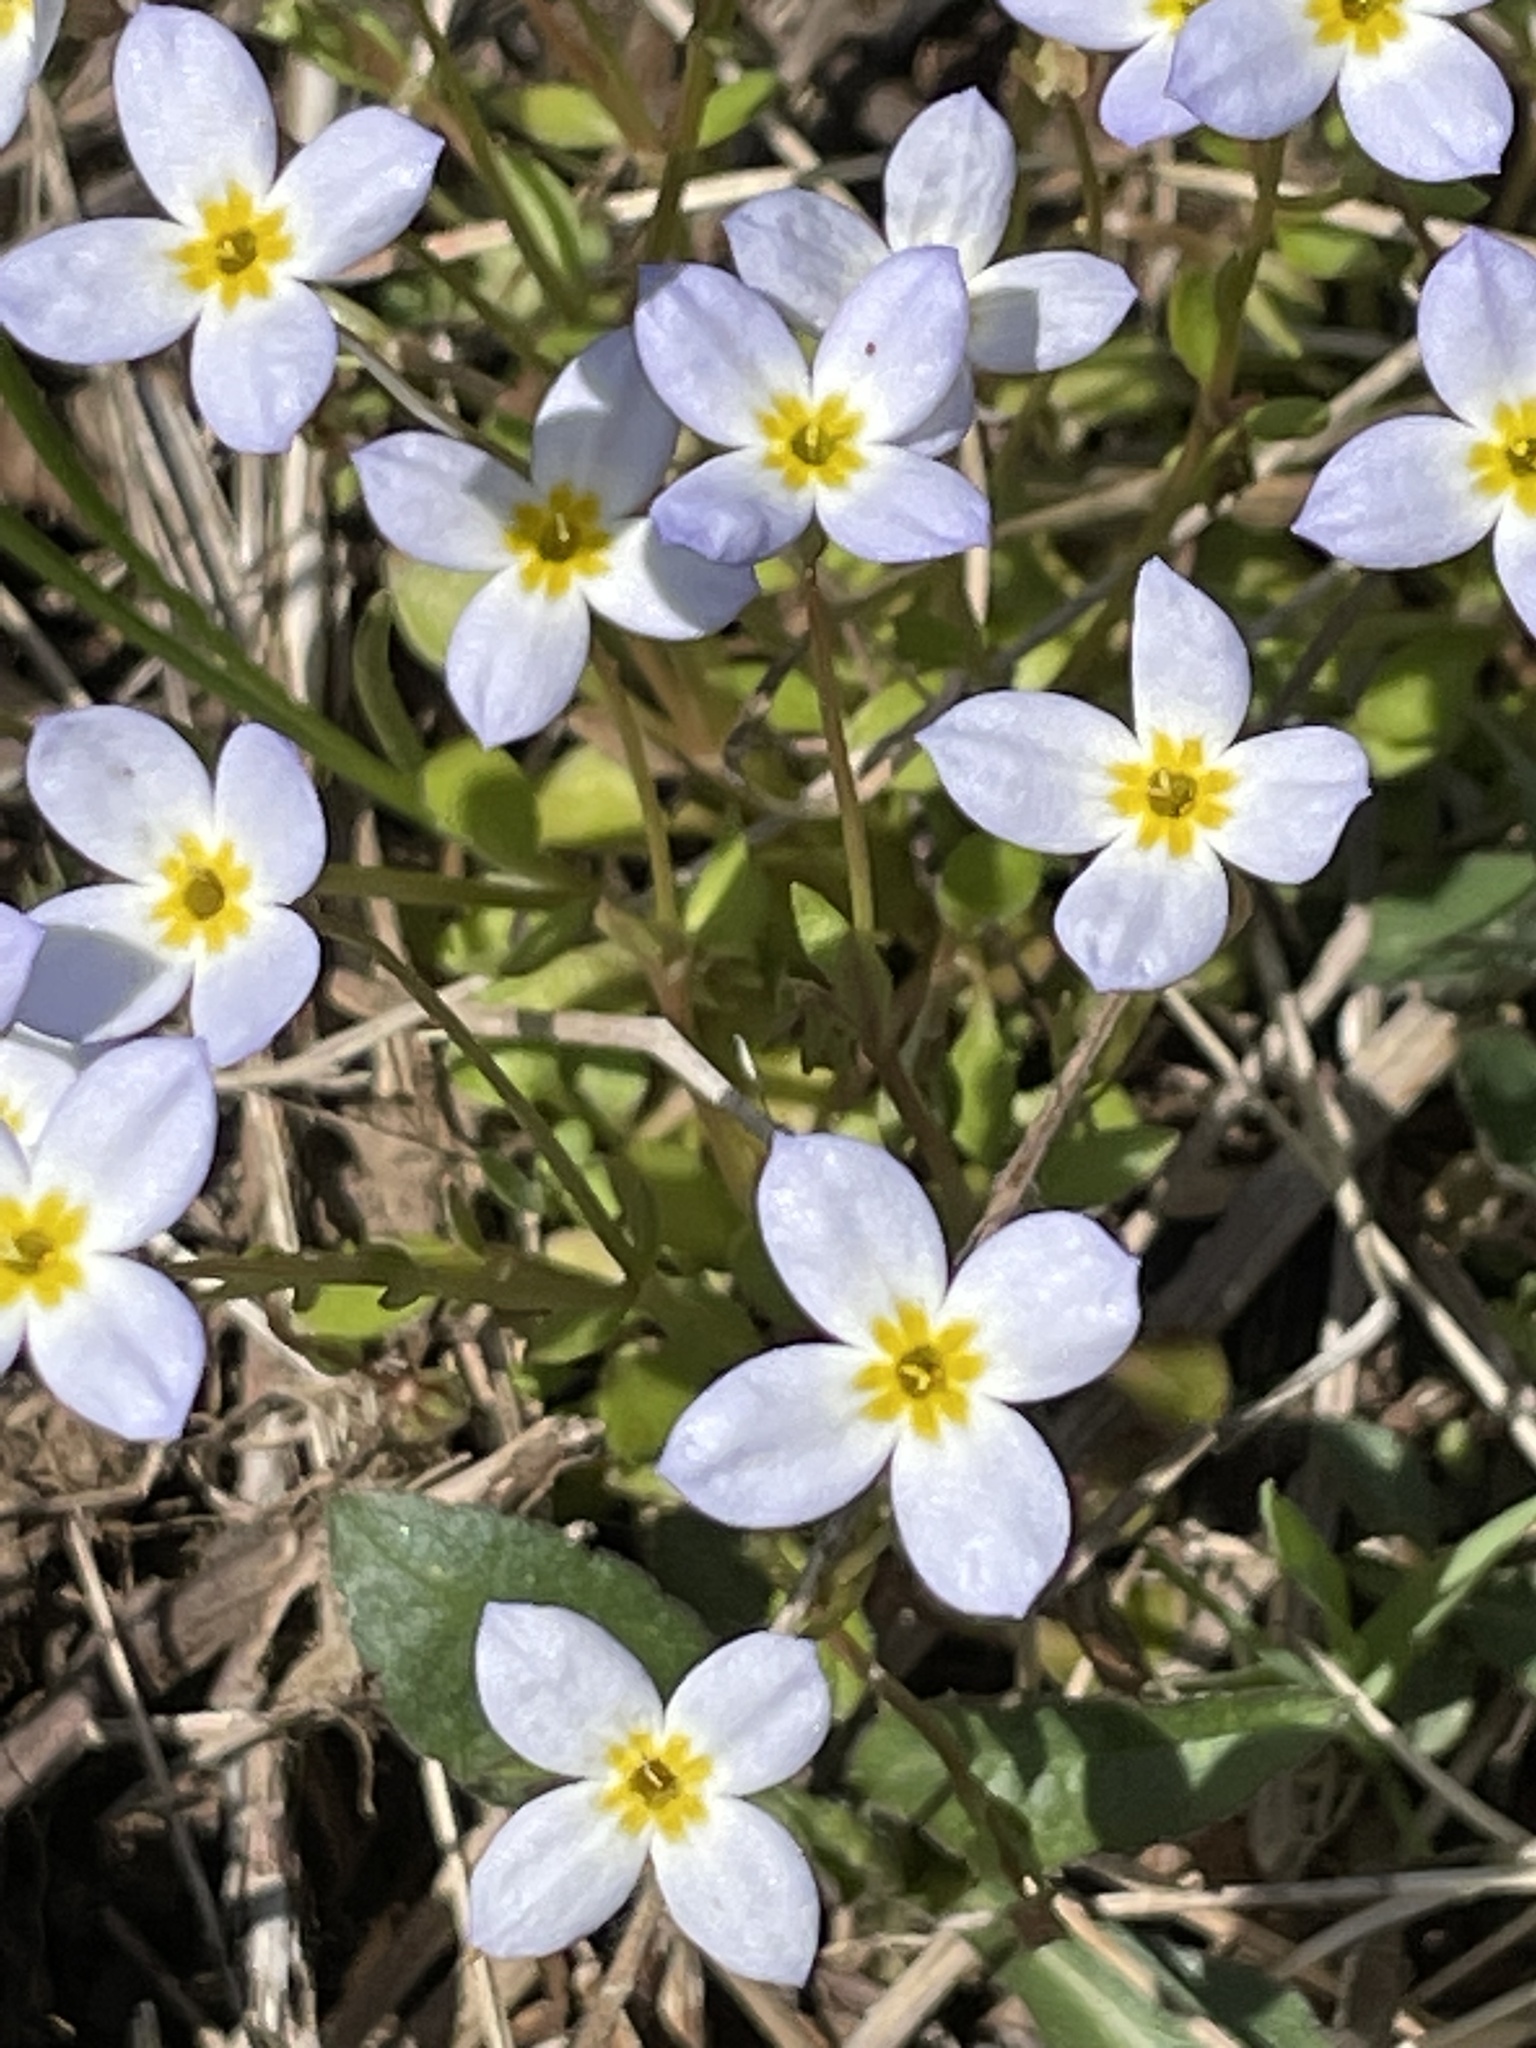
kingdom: Plantae
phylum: Tracheophyta
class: Magnoliopsida
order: Gentianales
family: Rubiaceae
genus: Houstonia
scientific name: Houstonia caerulea
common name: Bluets
